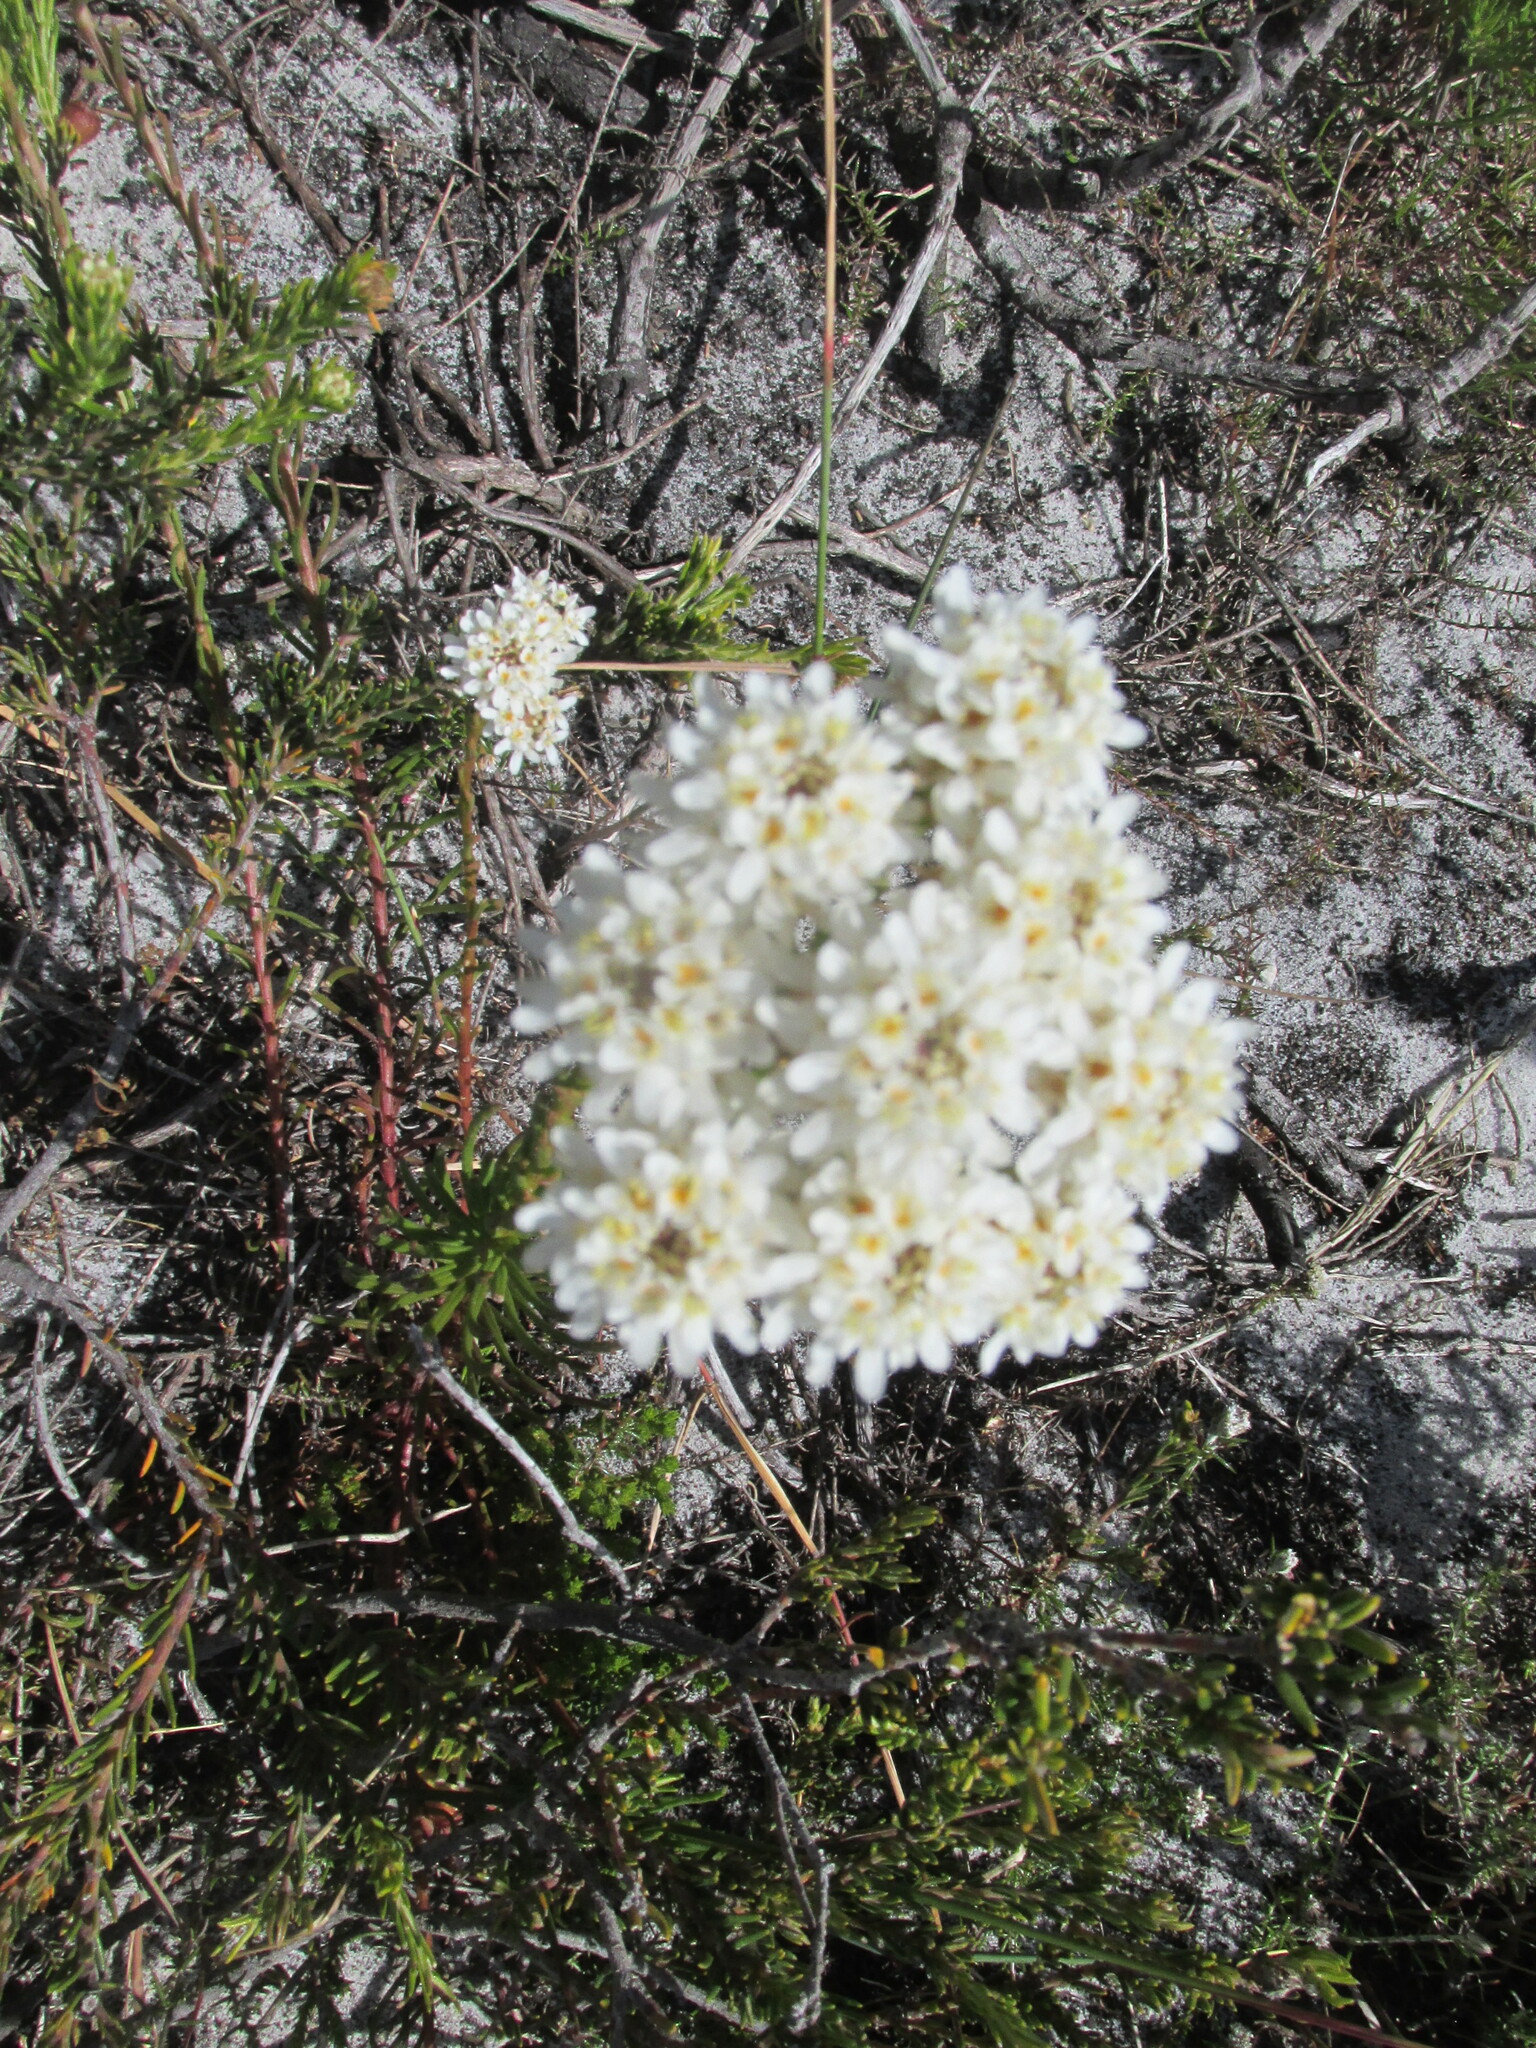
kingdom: Plantae
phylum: Tracheophyta
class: Magnoliopsida
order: Lamiales
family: Scrophulariaceae
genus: Pseudoselago
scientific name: Pseudoselago gracilis
